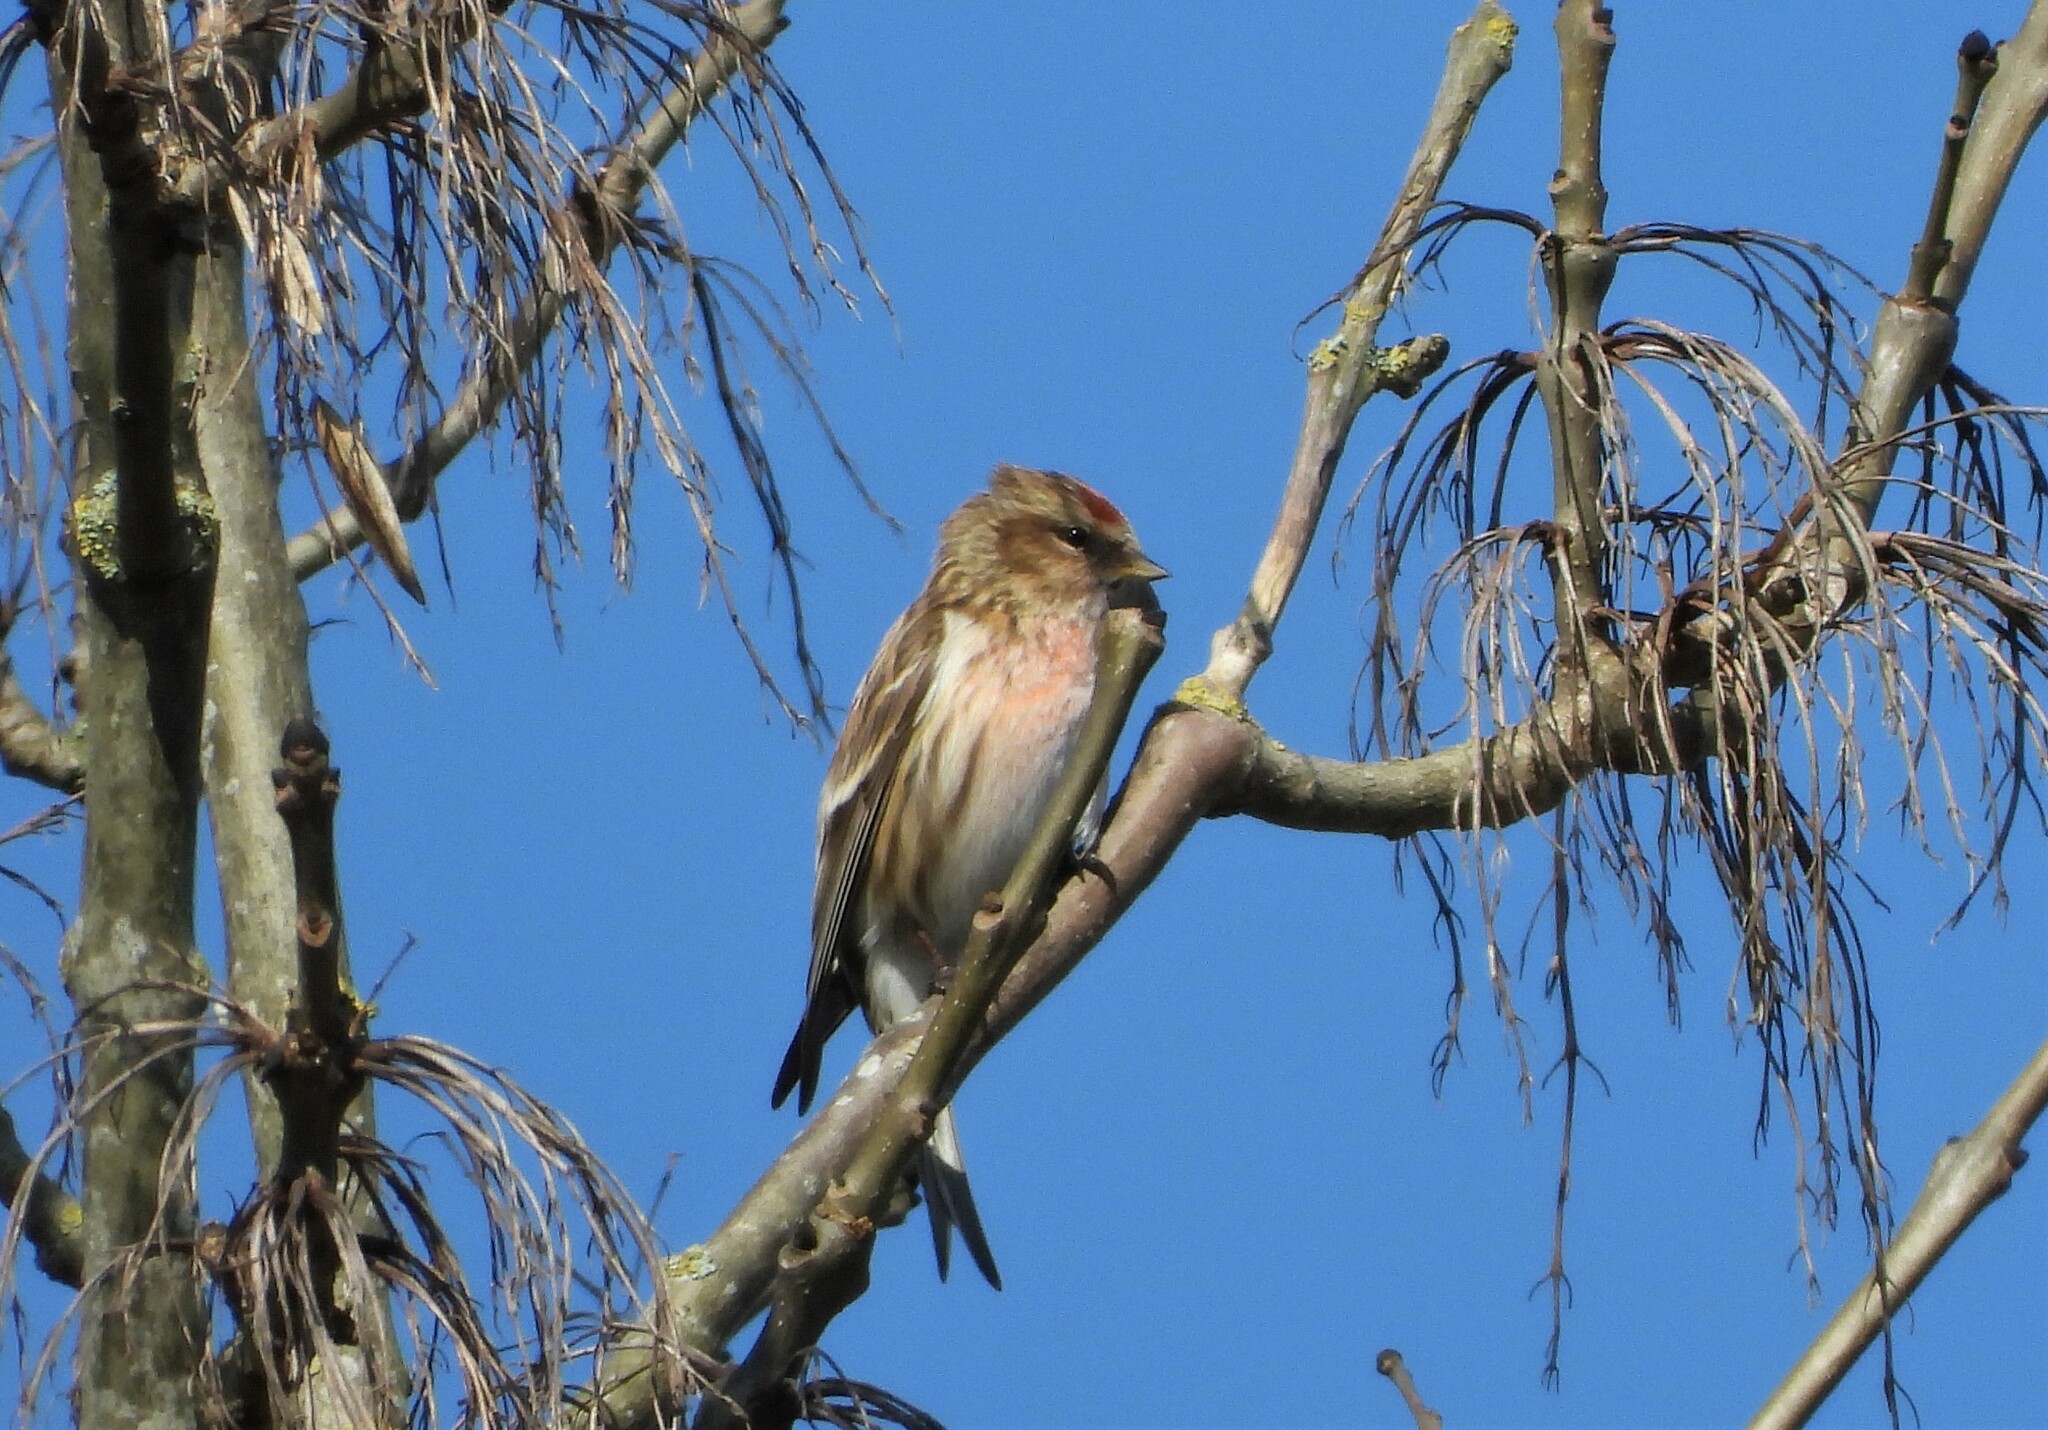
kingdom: Animalia
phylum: Chordata
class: Aves
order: Passeriformes
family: Fringillidae
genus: Acanthis
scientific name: Acanthis flammea
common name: Common redpoll
